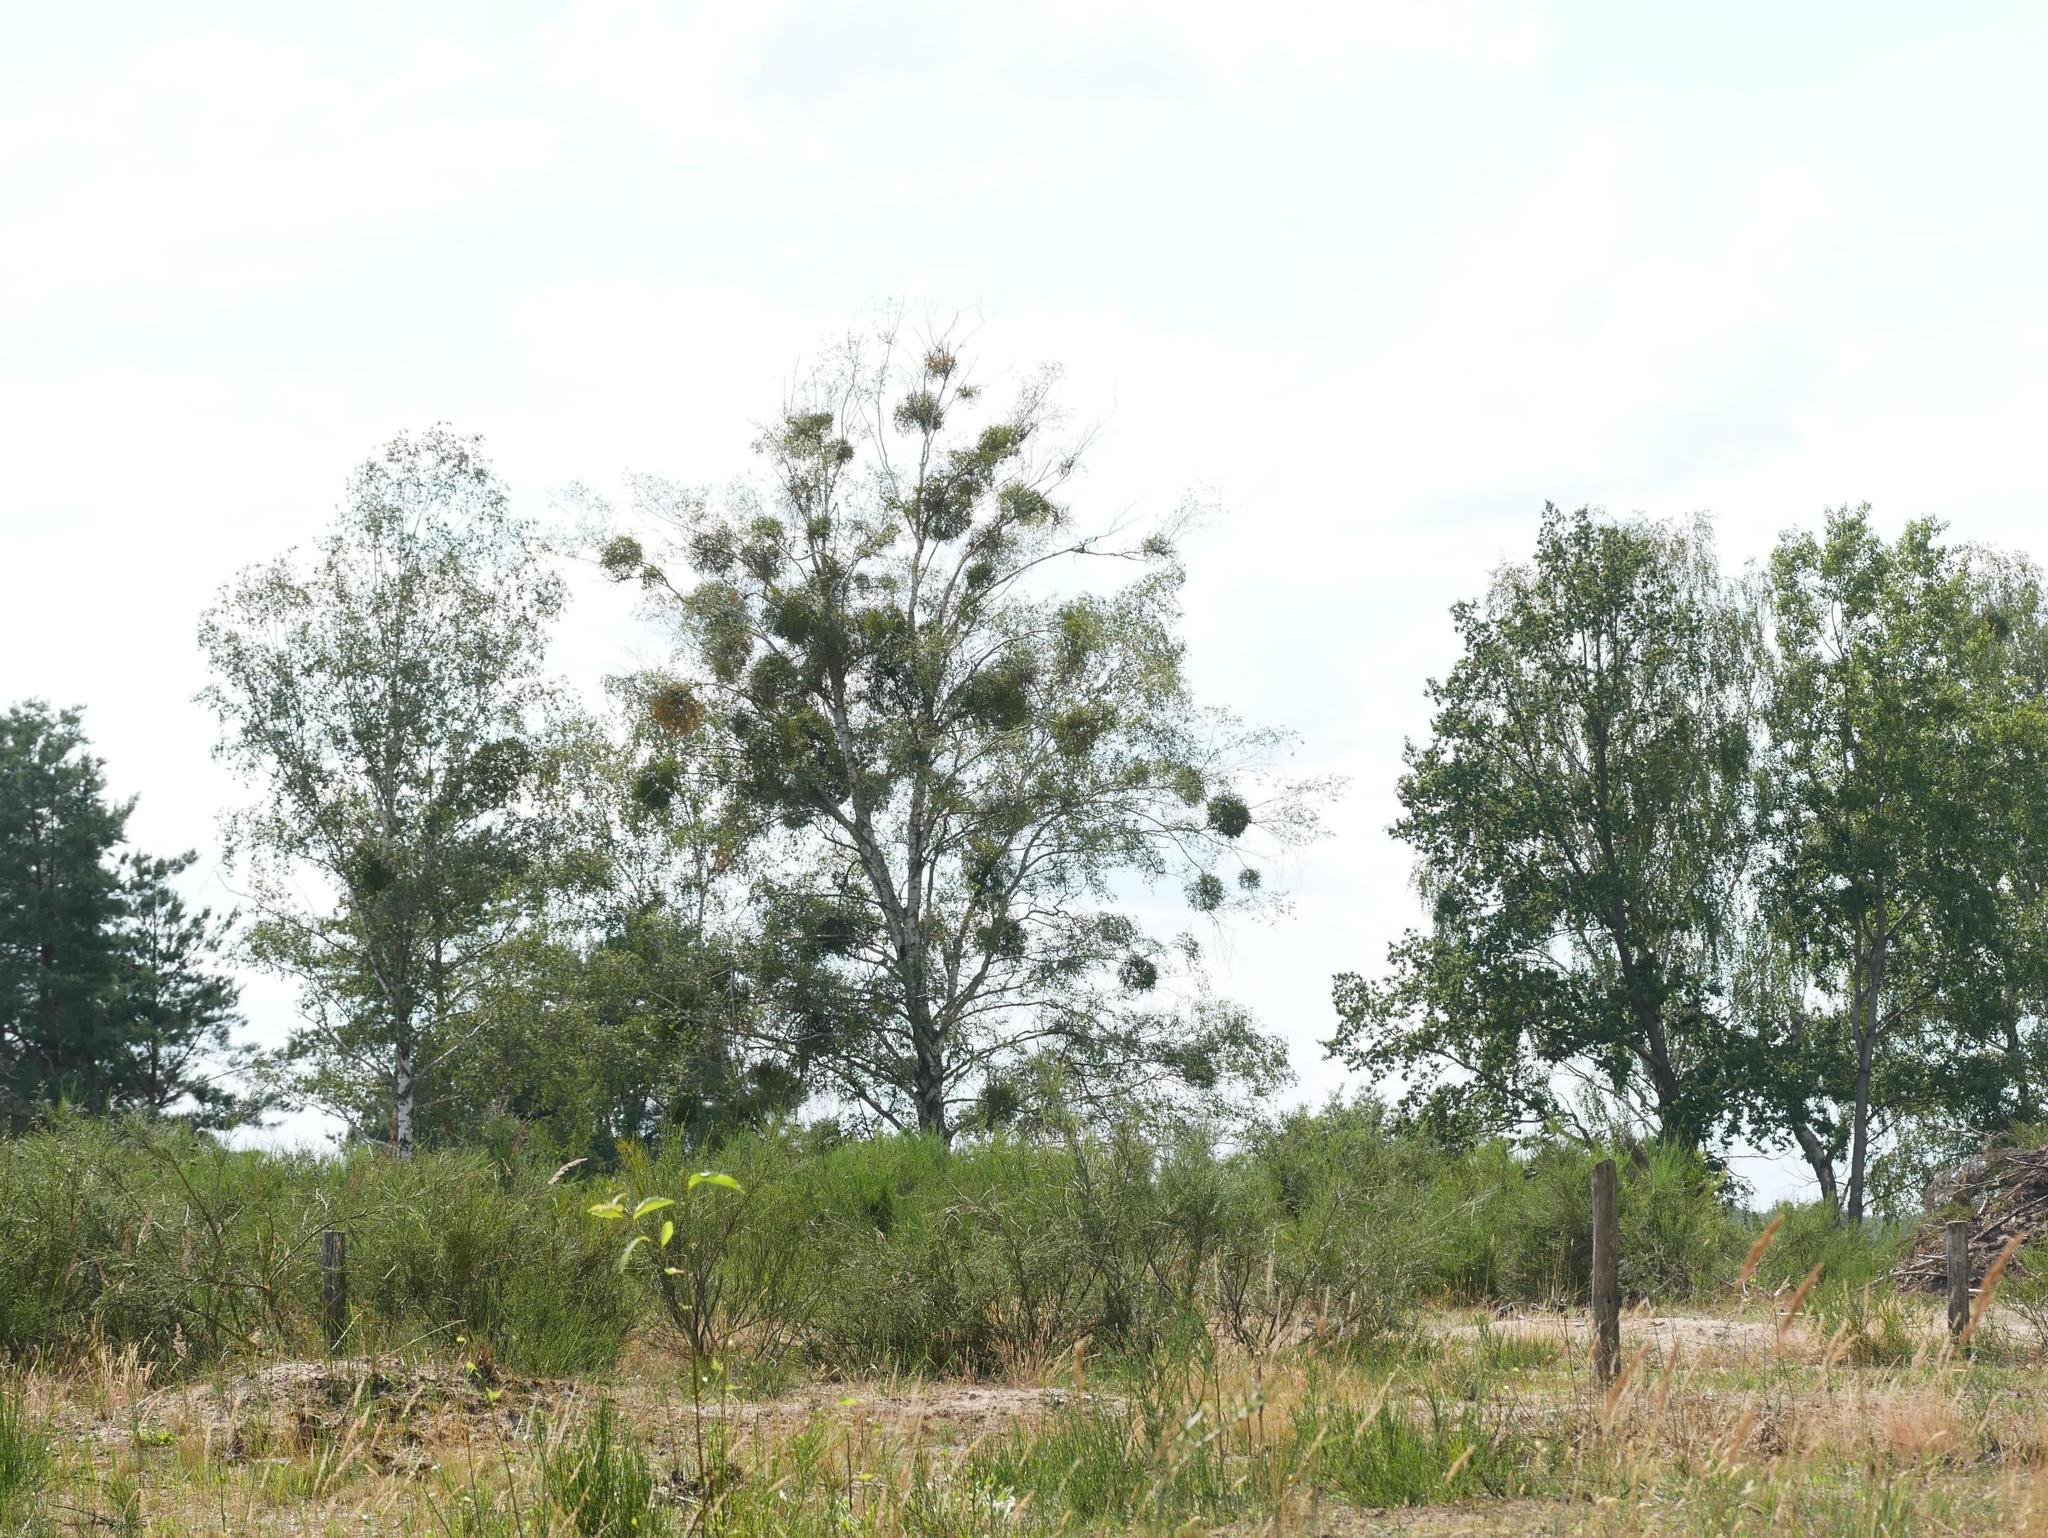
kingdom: Plantae
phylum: Tracheophyta
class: Magnoliopsida
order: Santalales
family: Viscaceae
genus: Viscum
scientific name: Viscum album
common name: Mistletoe
